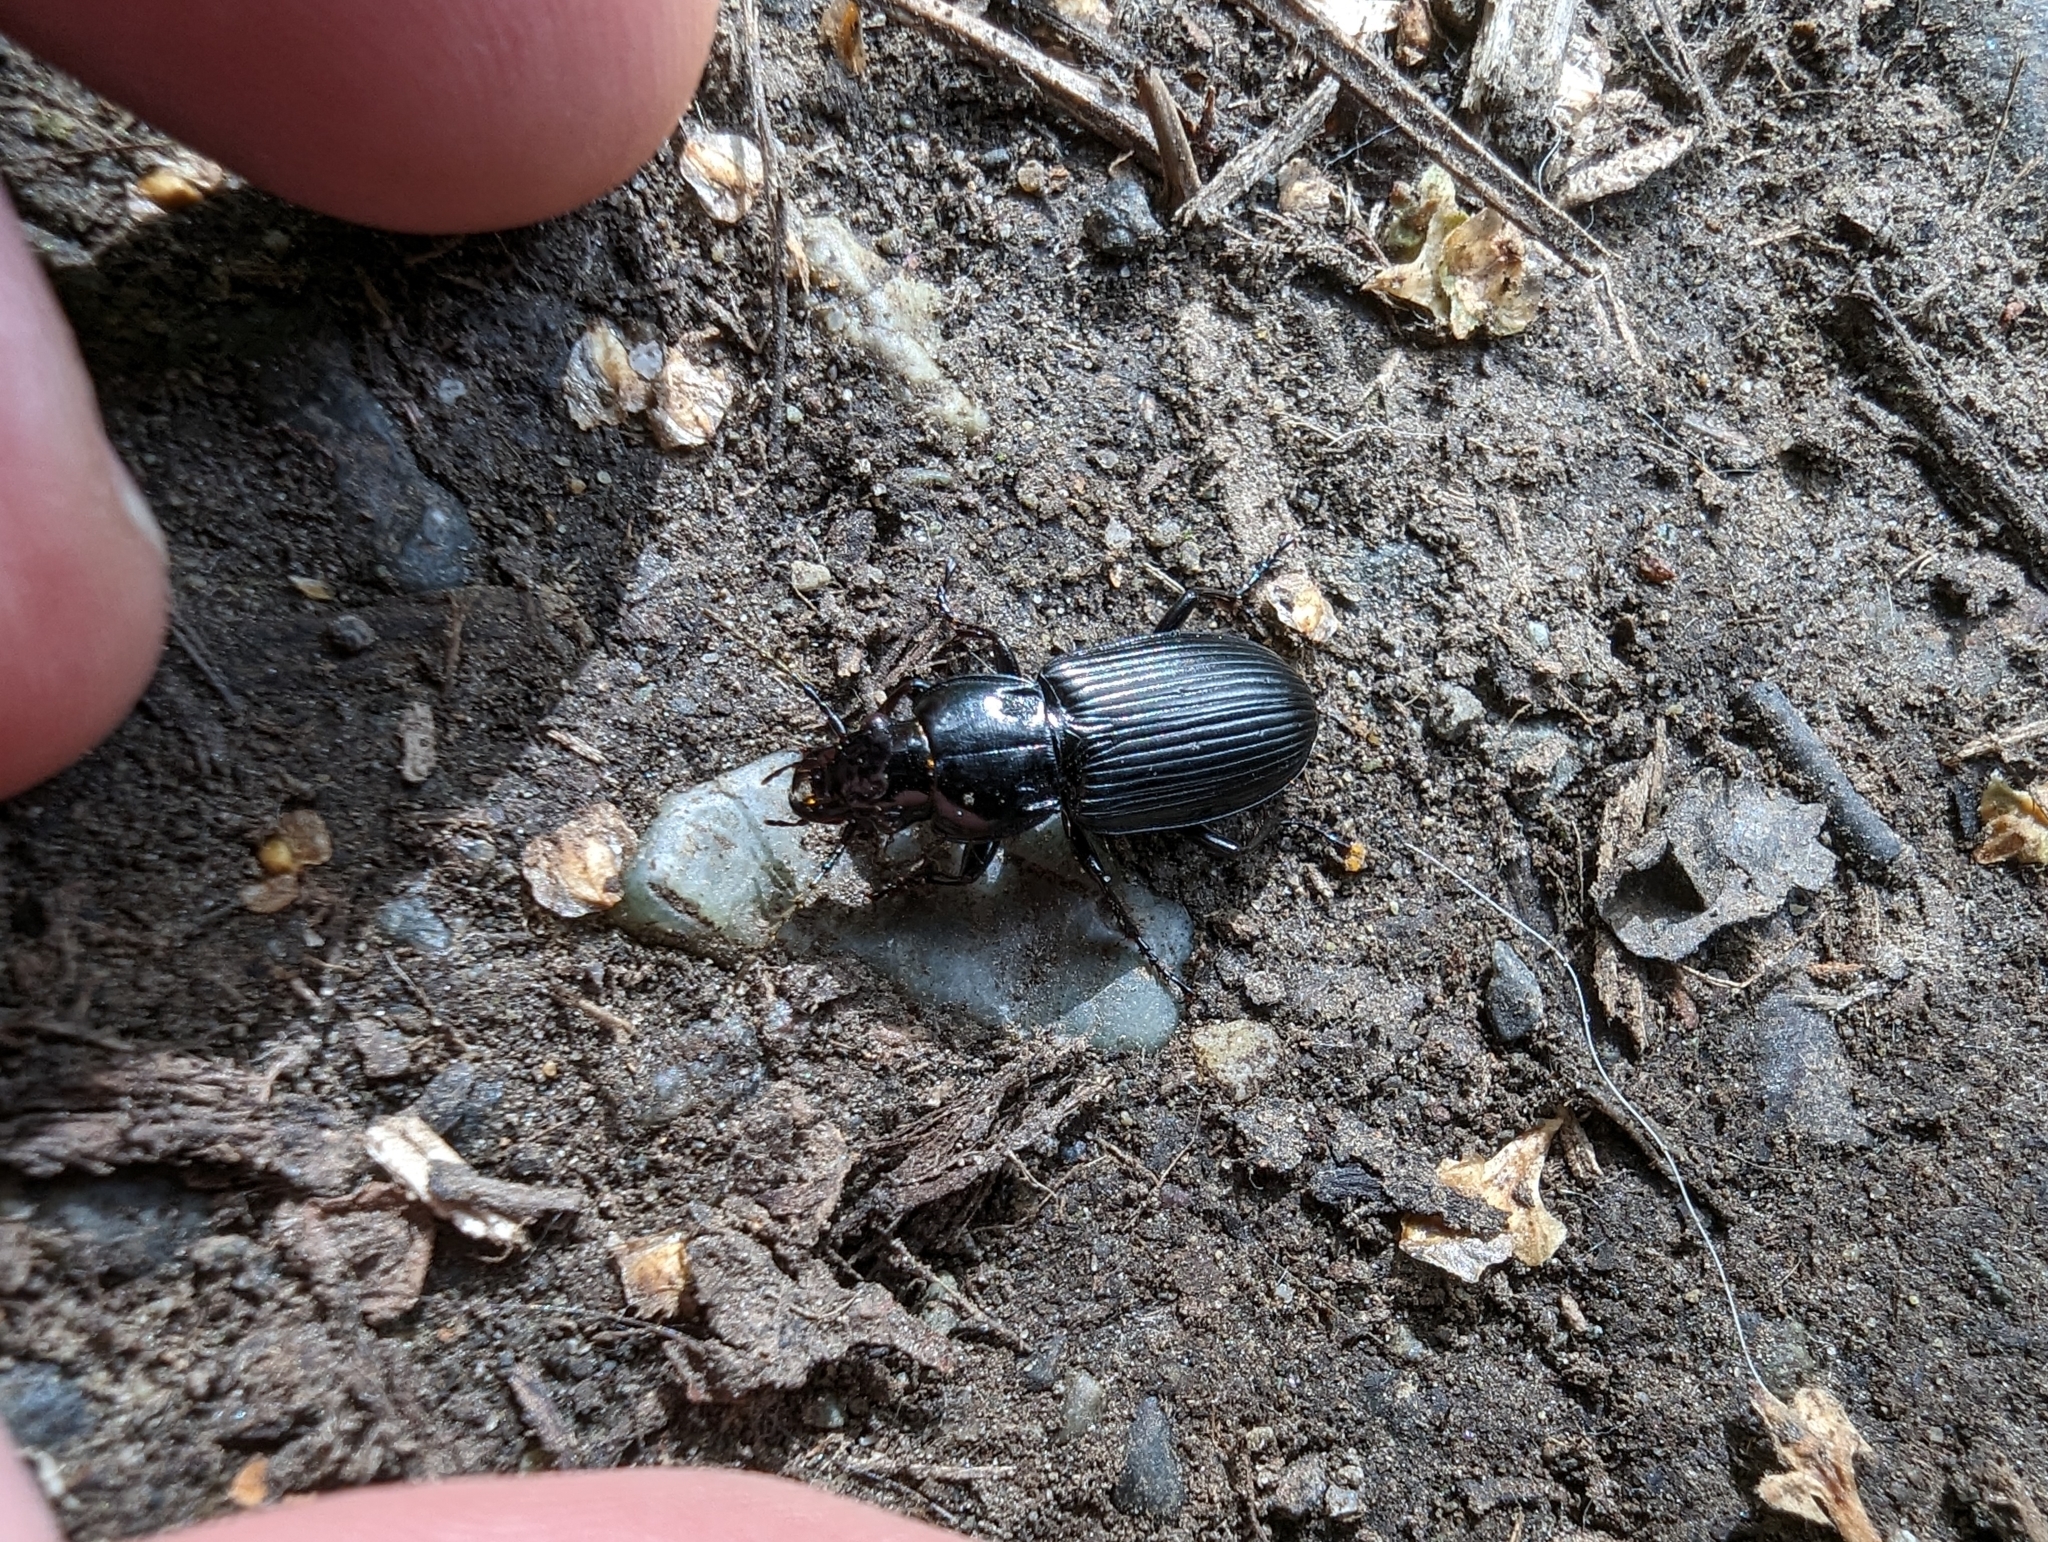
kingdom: Animalia
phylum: Arthropoda
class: Insecta
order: Coleoptera
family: Carabidae
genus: Pterostichus
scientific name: Pterostichus melanarius
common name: European dark harp ground beetle
